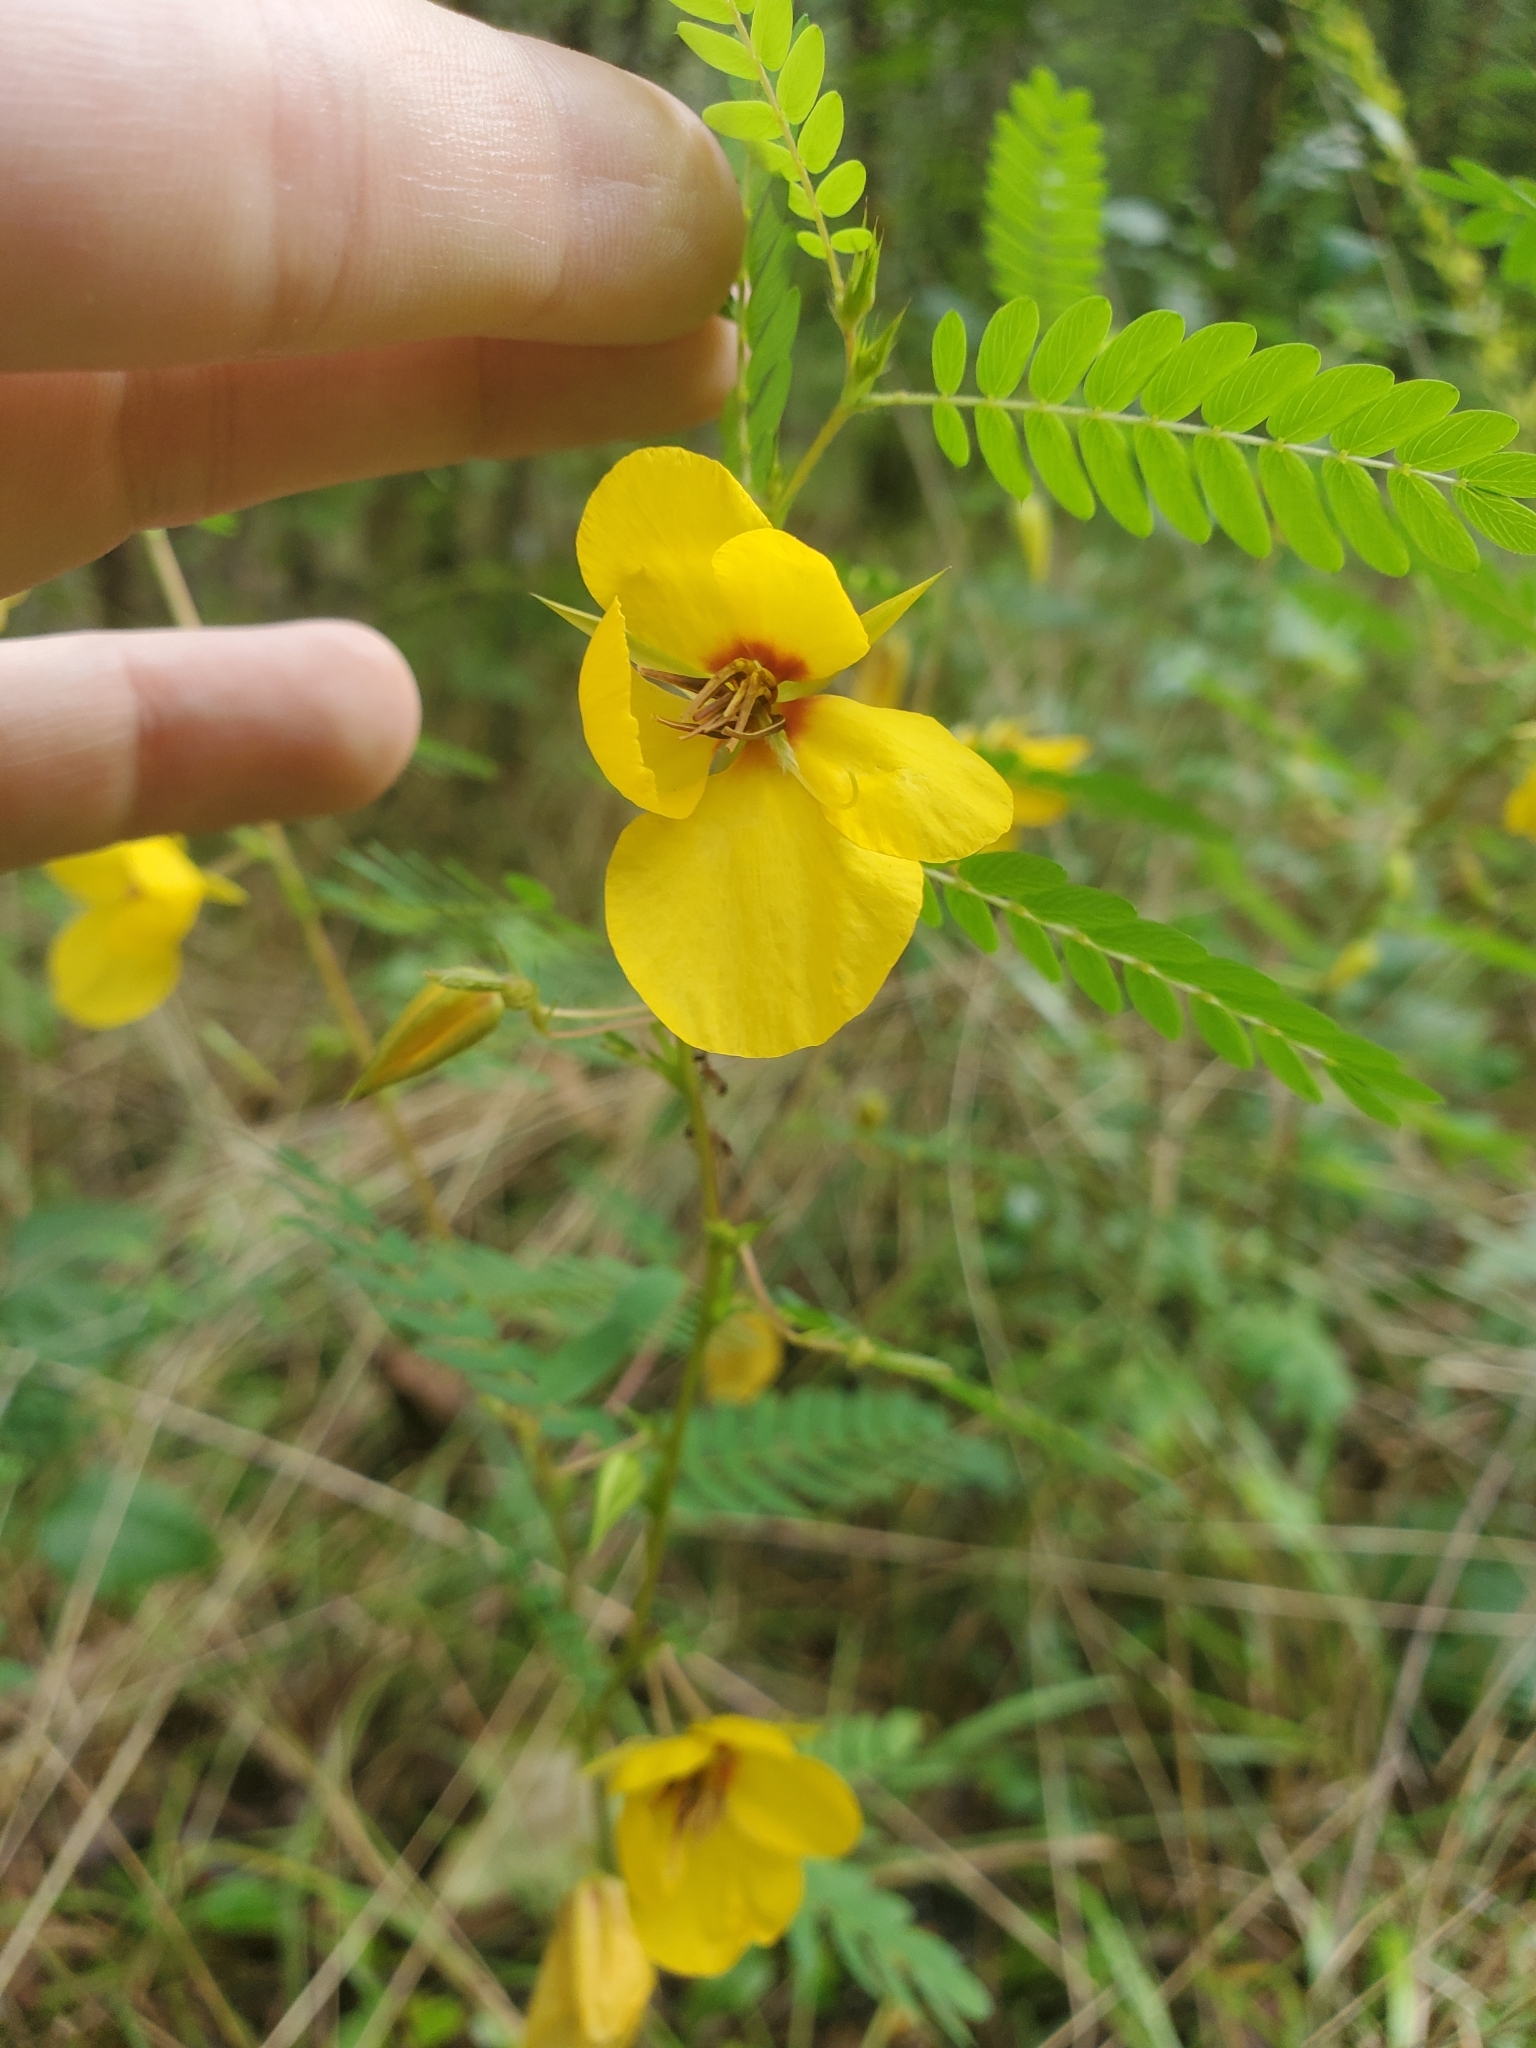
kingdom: Plantae
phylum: Tracheophyta
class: Magnoliopsida
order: Fabales
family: Fabaceae
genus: Chamaecrista
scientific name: Chamaecrista fasciculata
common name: Golden cassia
